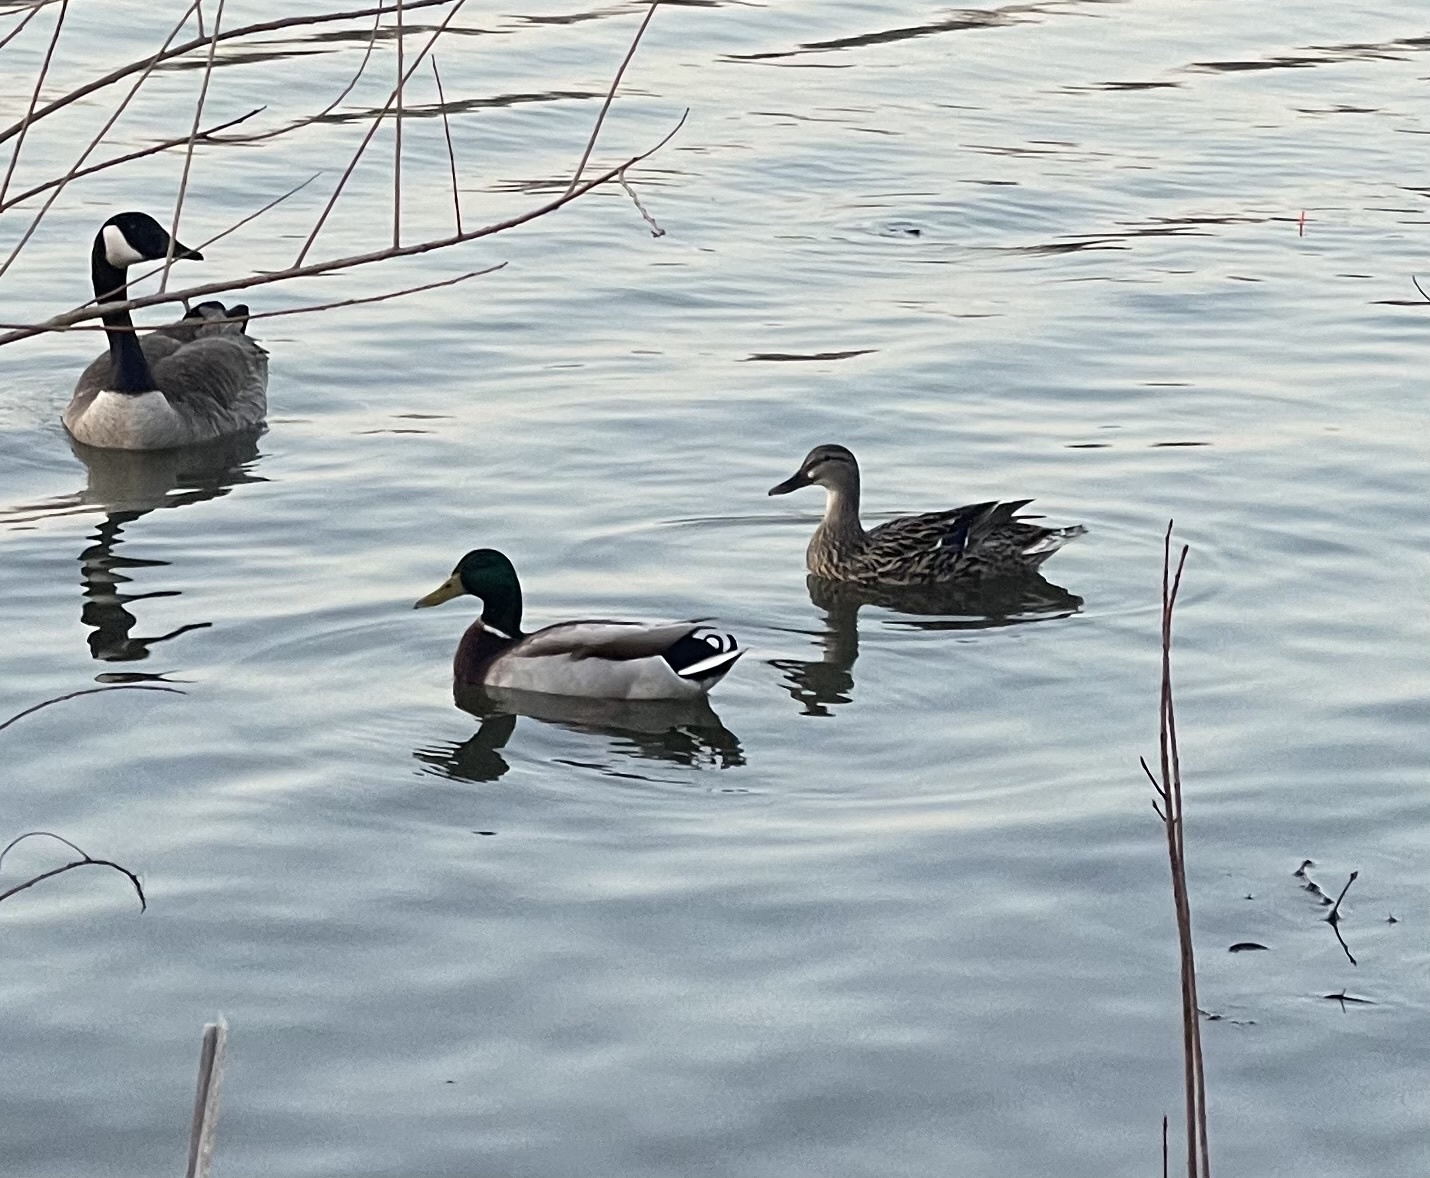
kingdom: Animalia
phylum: Chordata
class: Aves
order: Anseriformes
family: Anatidae
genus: Anas
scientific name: Anas platyrhynchos
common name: Mallard
